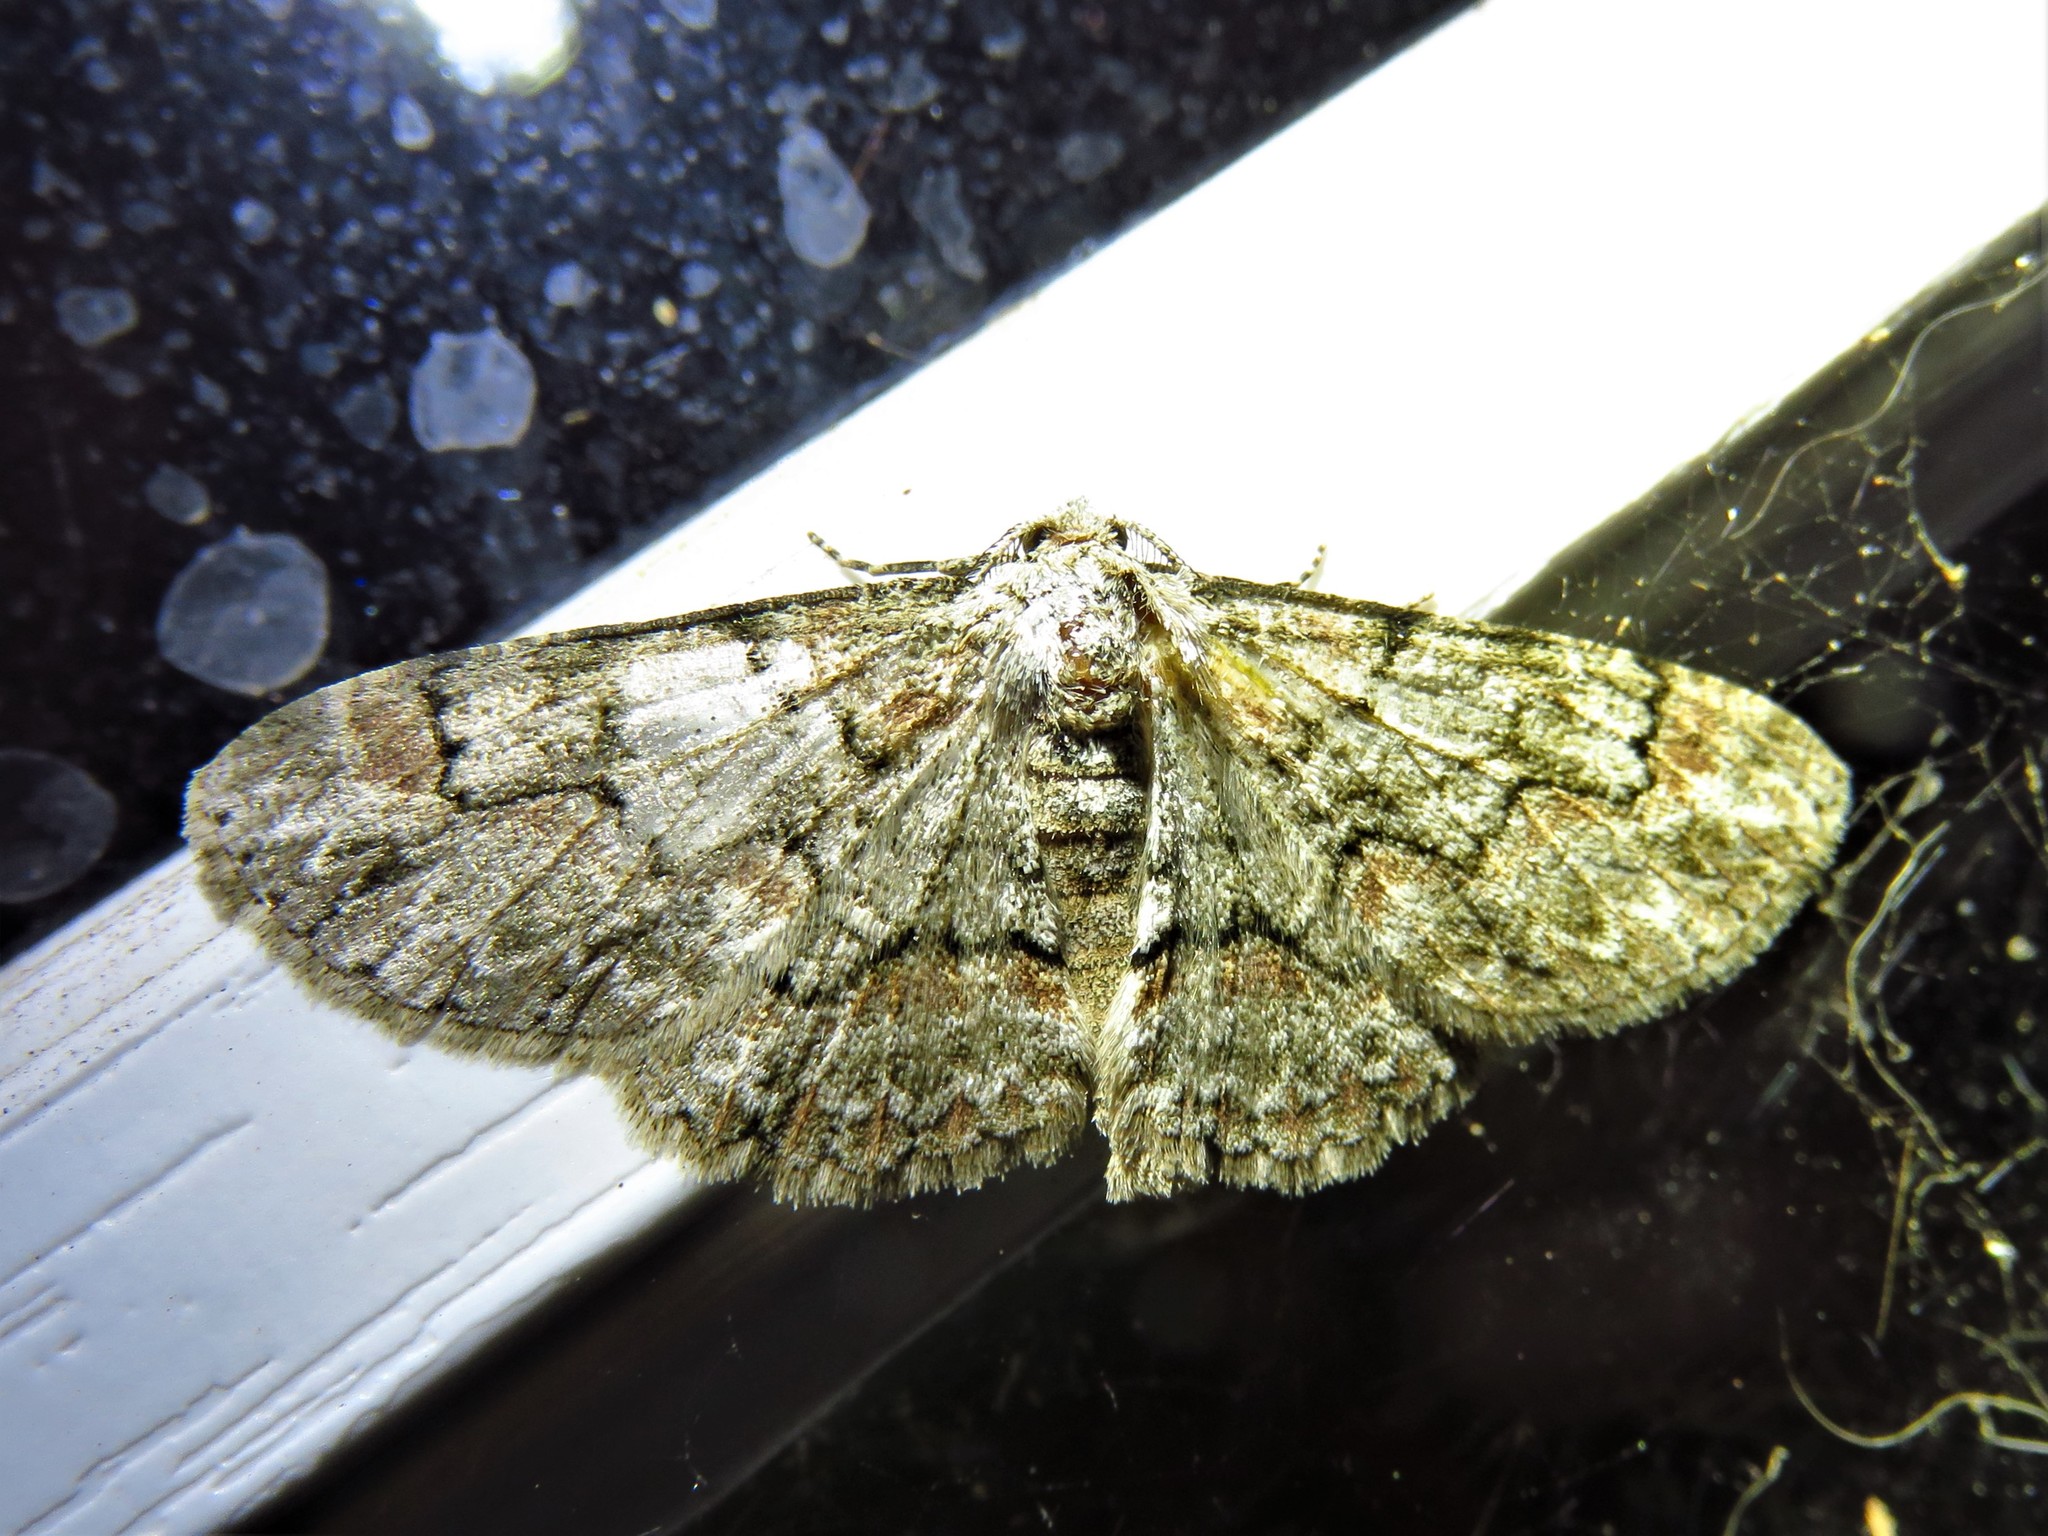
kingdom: Animalia
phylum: Arthropoda
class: Insecta
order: Lepidoptera
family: Geometridae
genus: Iridopsis
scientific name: Iridopsis defectaria
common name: Brown-shaded gray
